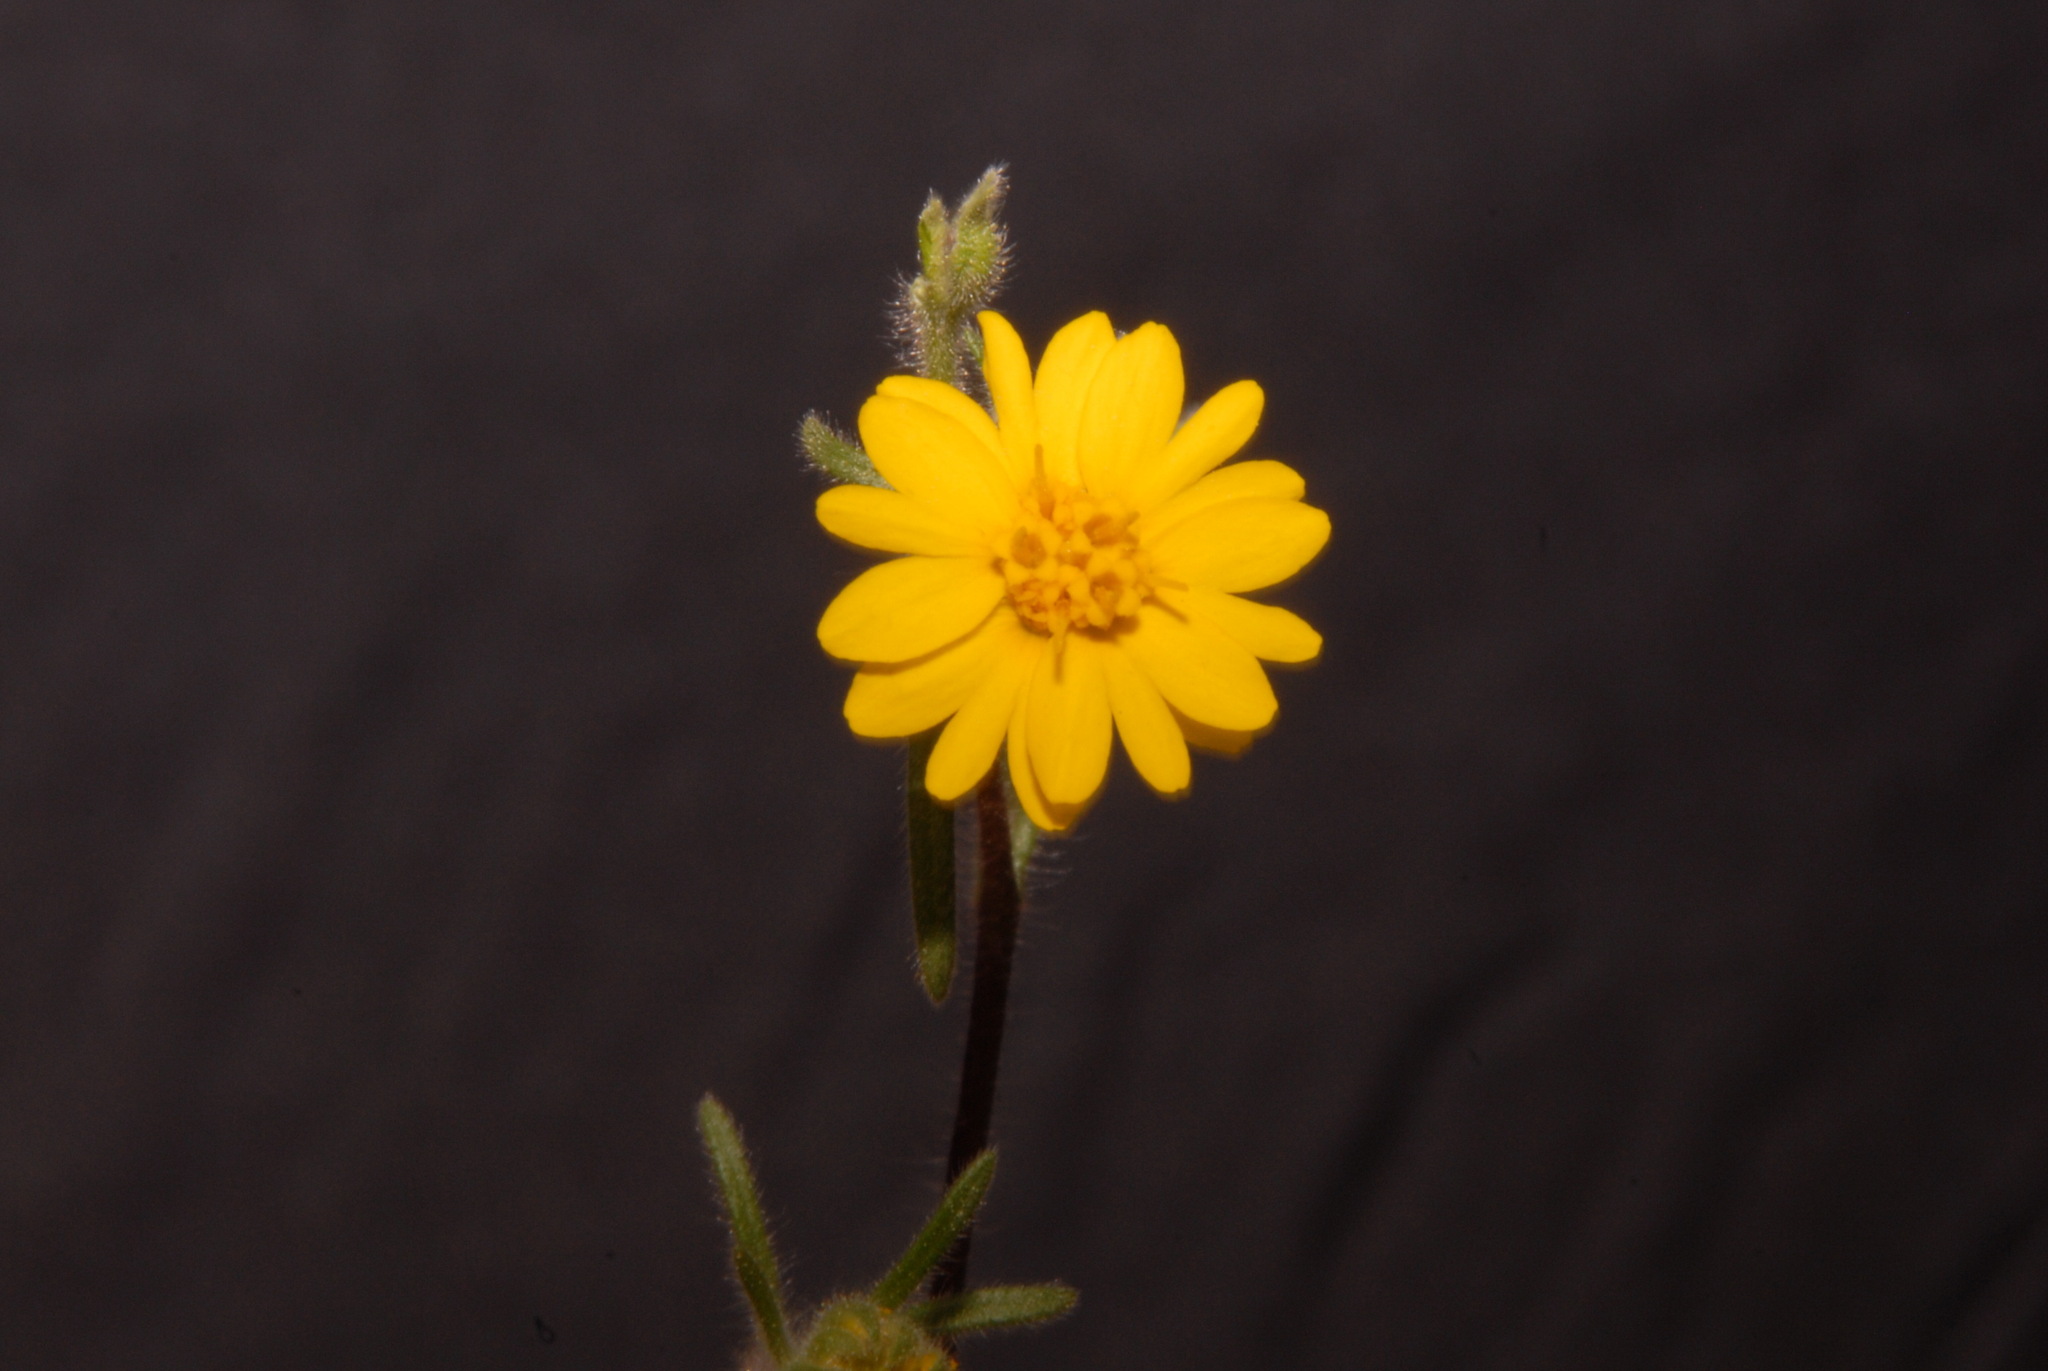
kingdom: Plantae
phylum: Tracheophyta
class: Magnoliopsida
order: Asterales
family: Asteraceae
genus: Madia
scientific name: Madia elegans
